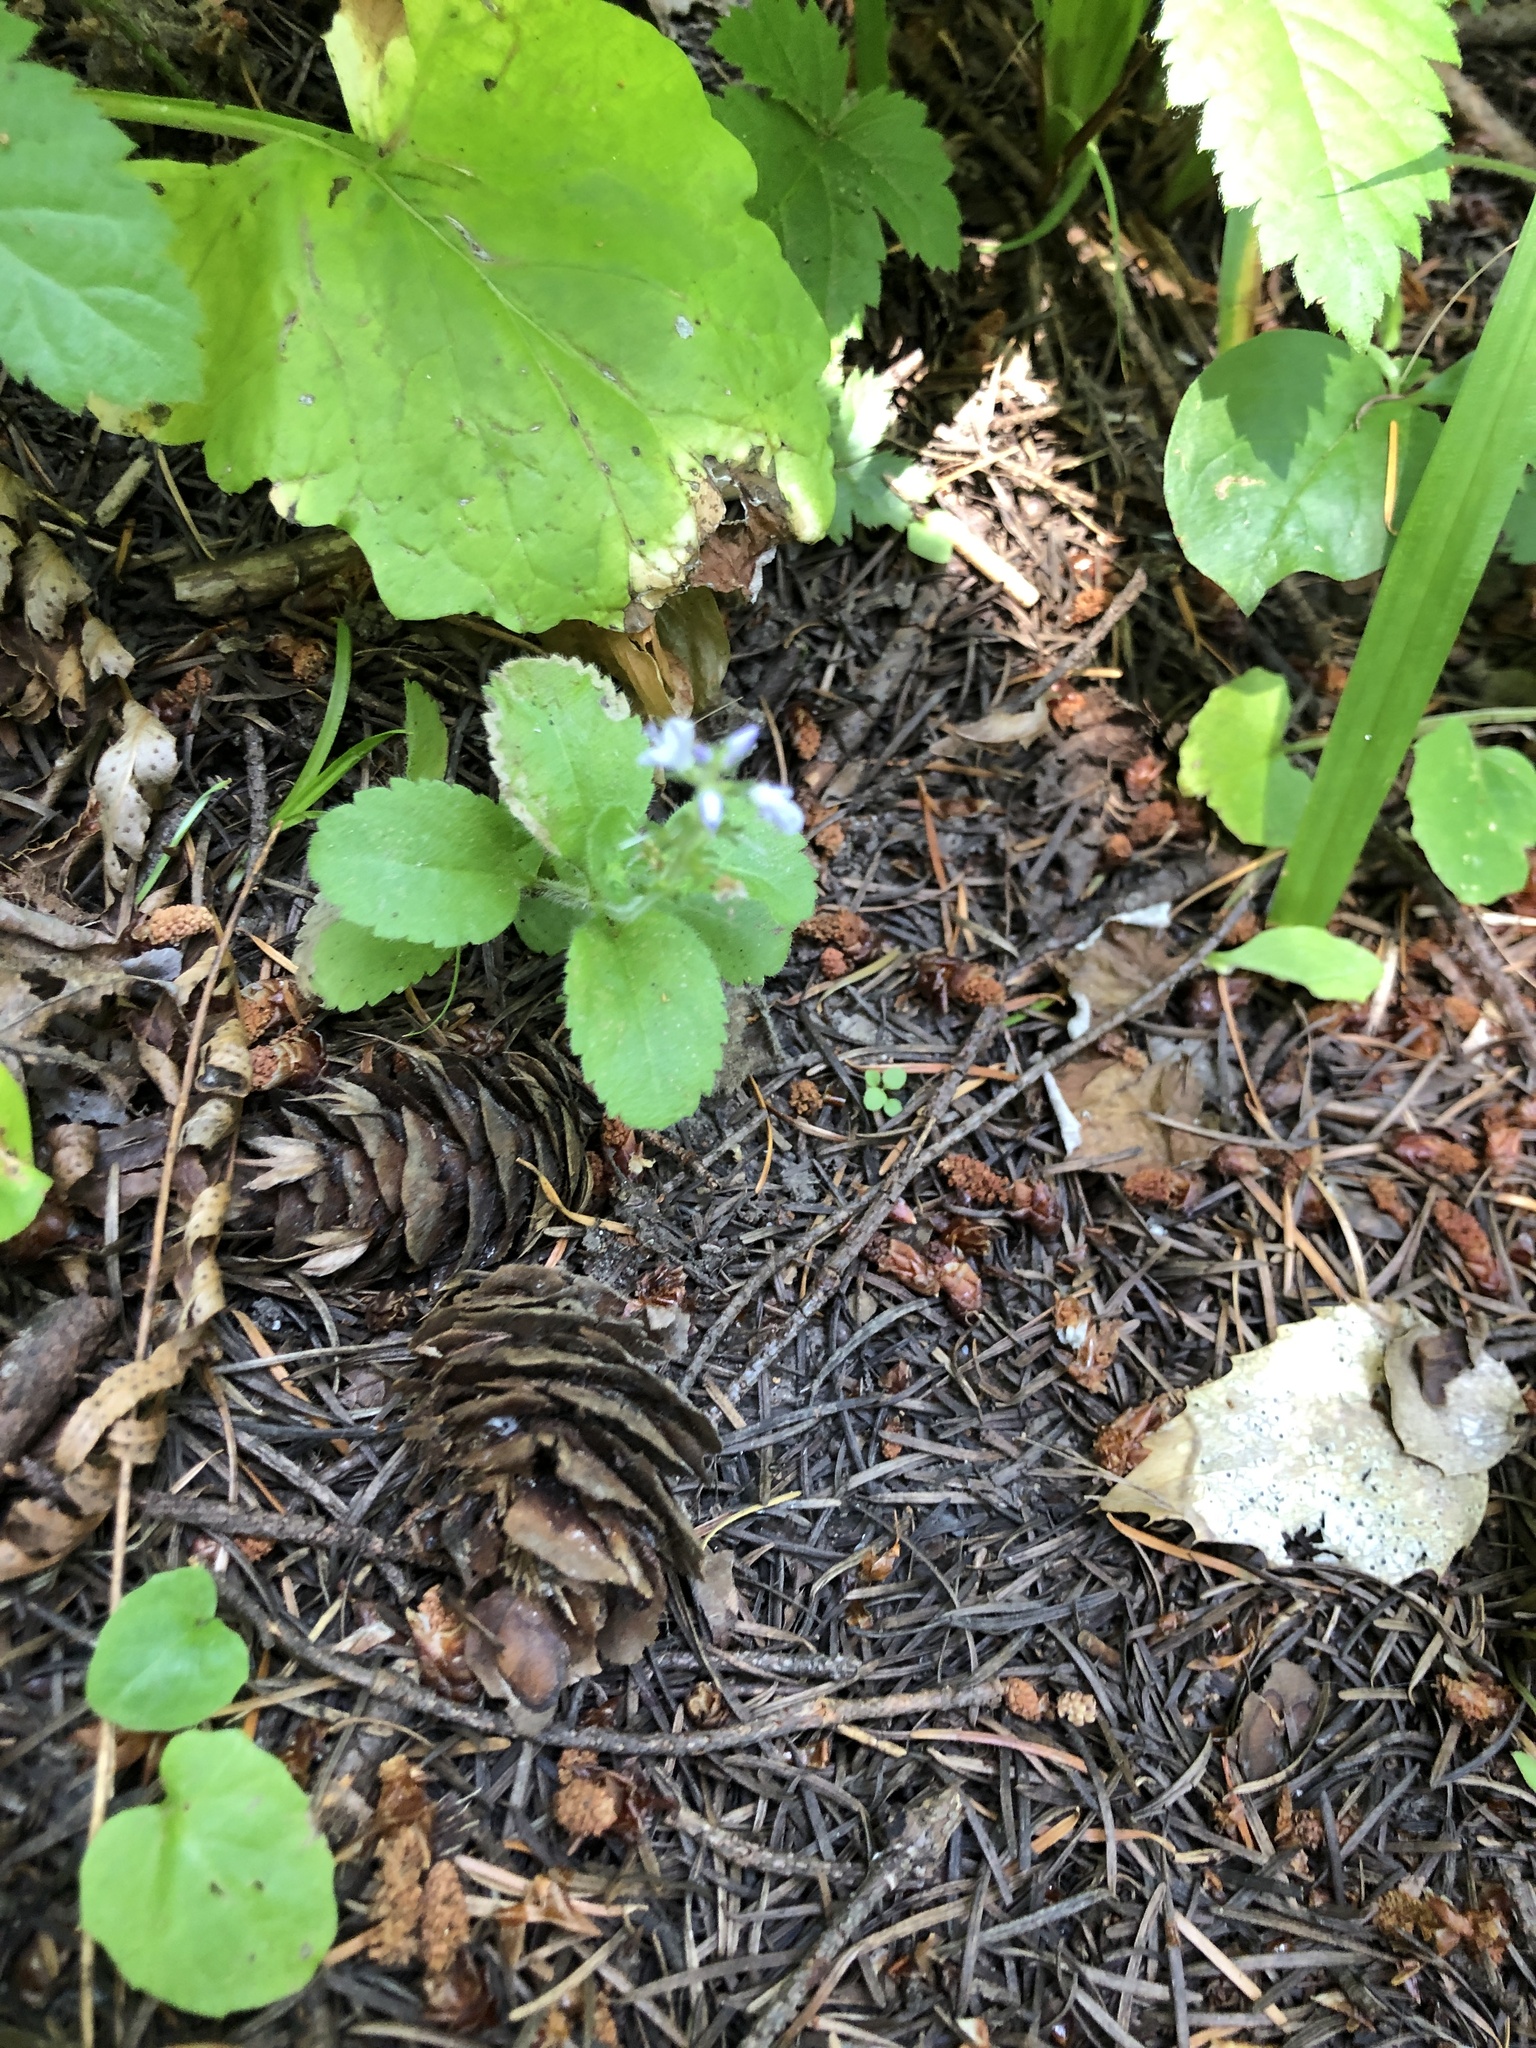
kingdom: Plantae
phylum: Tracheophyta
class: Magnoliopsida
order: Lamiales
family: Plantaginaceae
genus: Veronica
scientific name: Veronica officinalis
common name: Common speedwell
